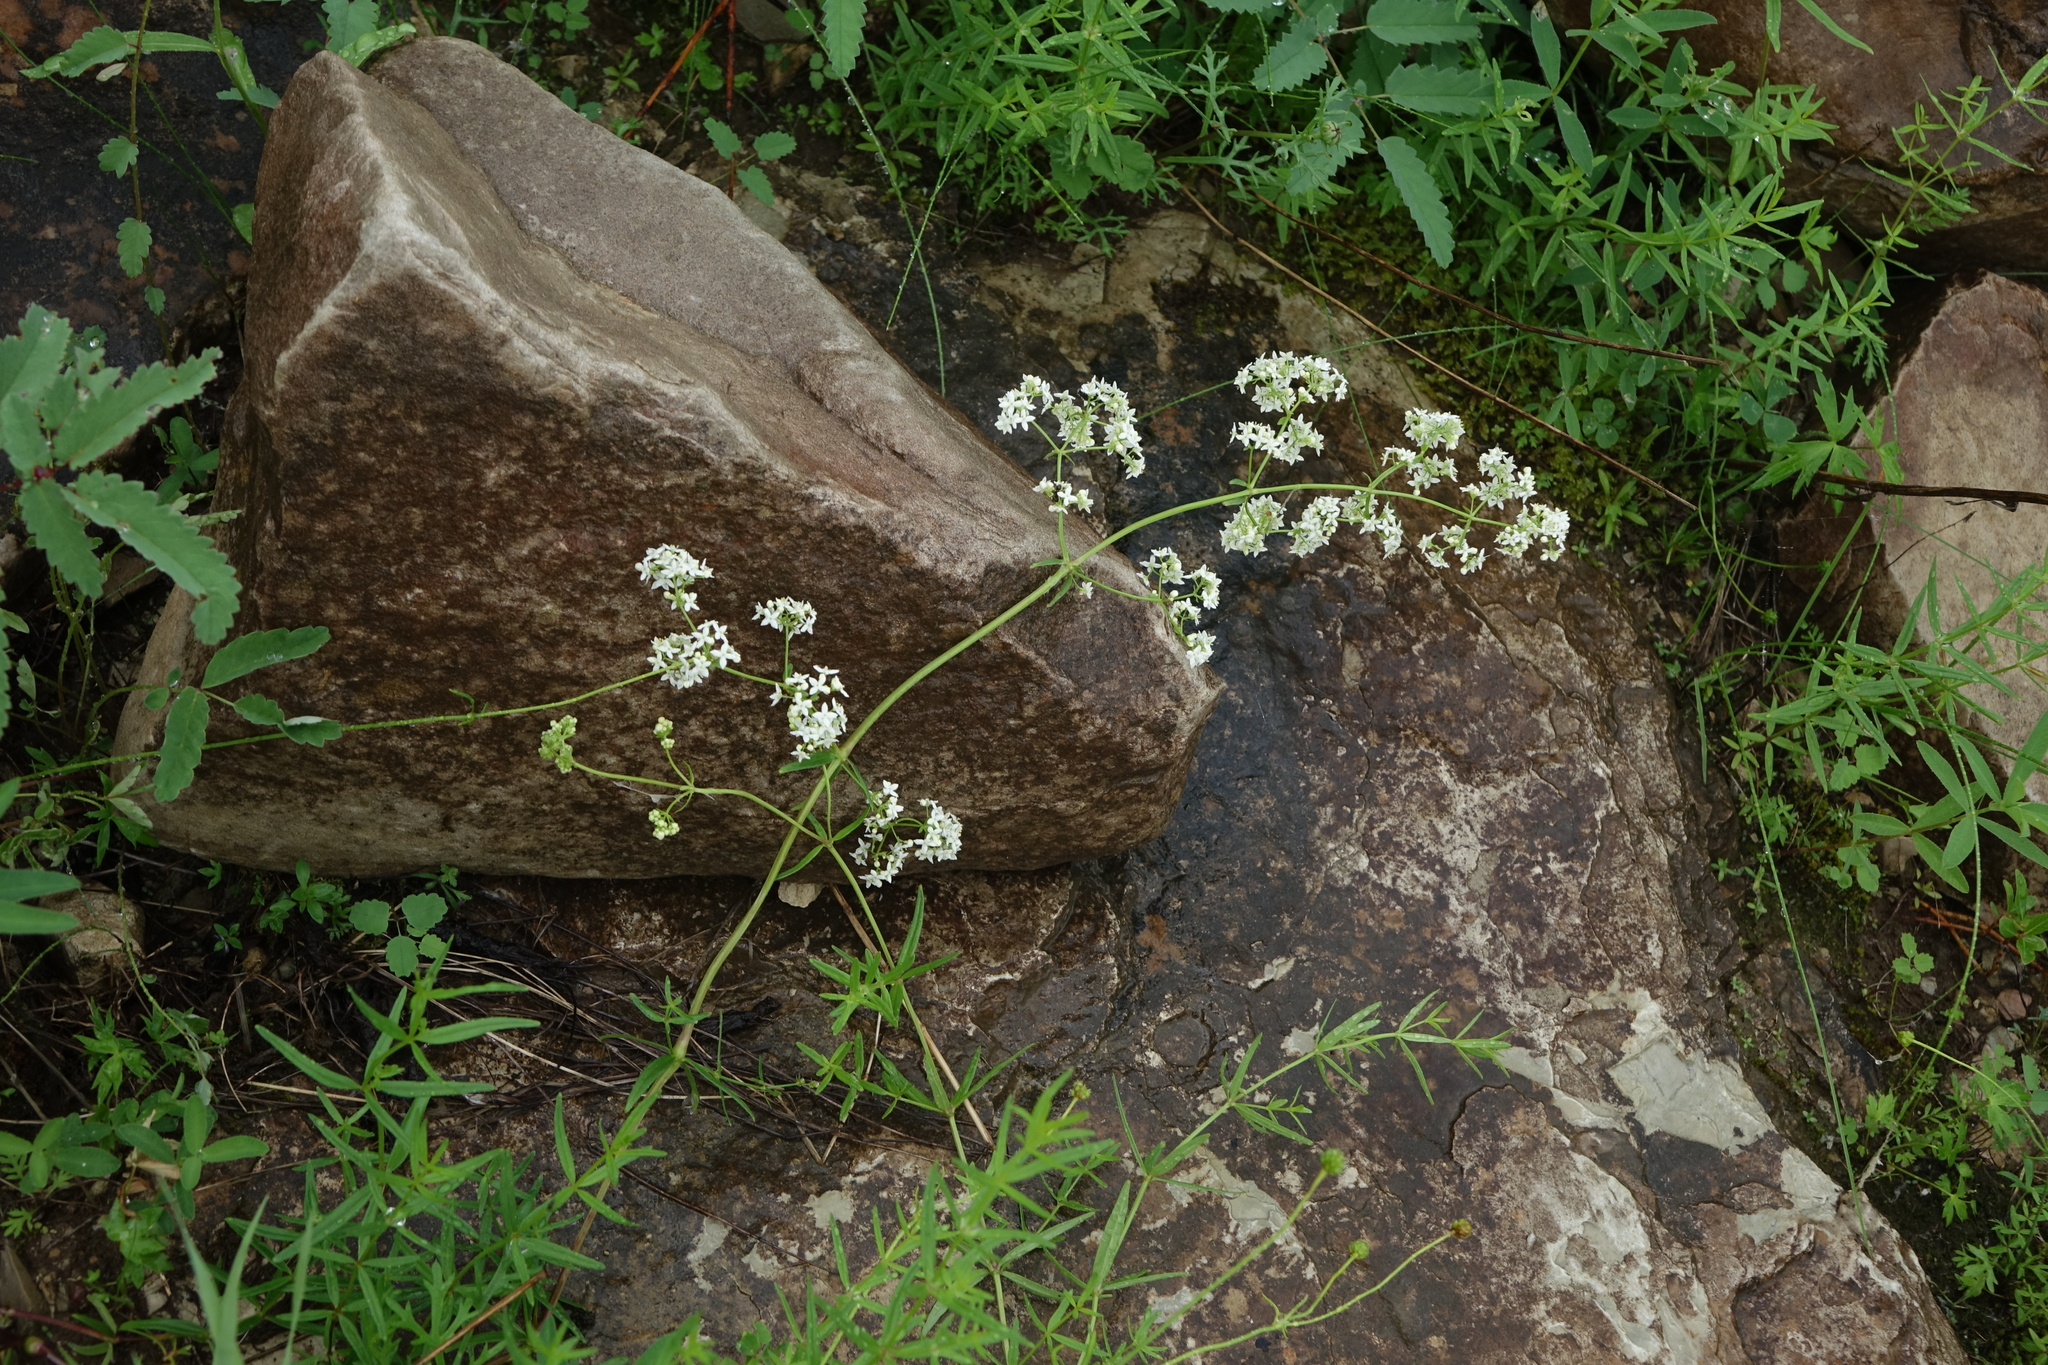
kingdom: Plantae
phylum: Tracheophyta
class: Magnoliopsida
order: Gentianales
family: Rubiaceae
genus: Galium
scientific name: Galium boreale
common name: Northern bedstraw
